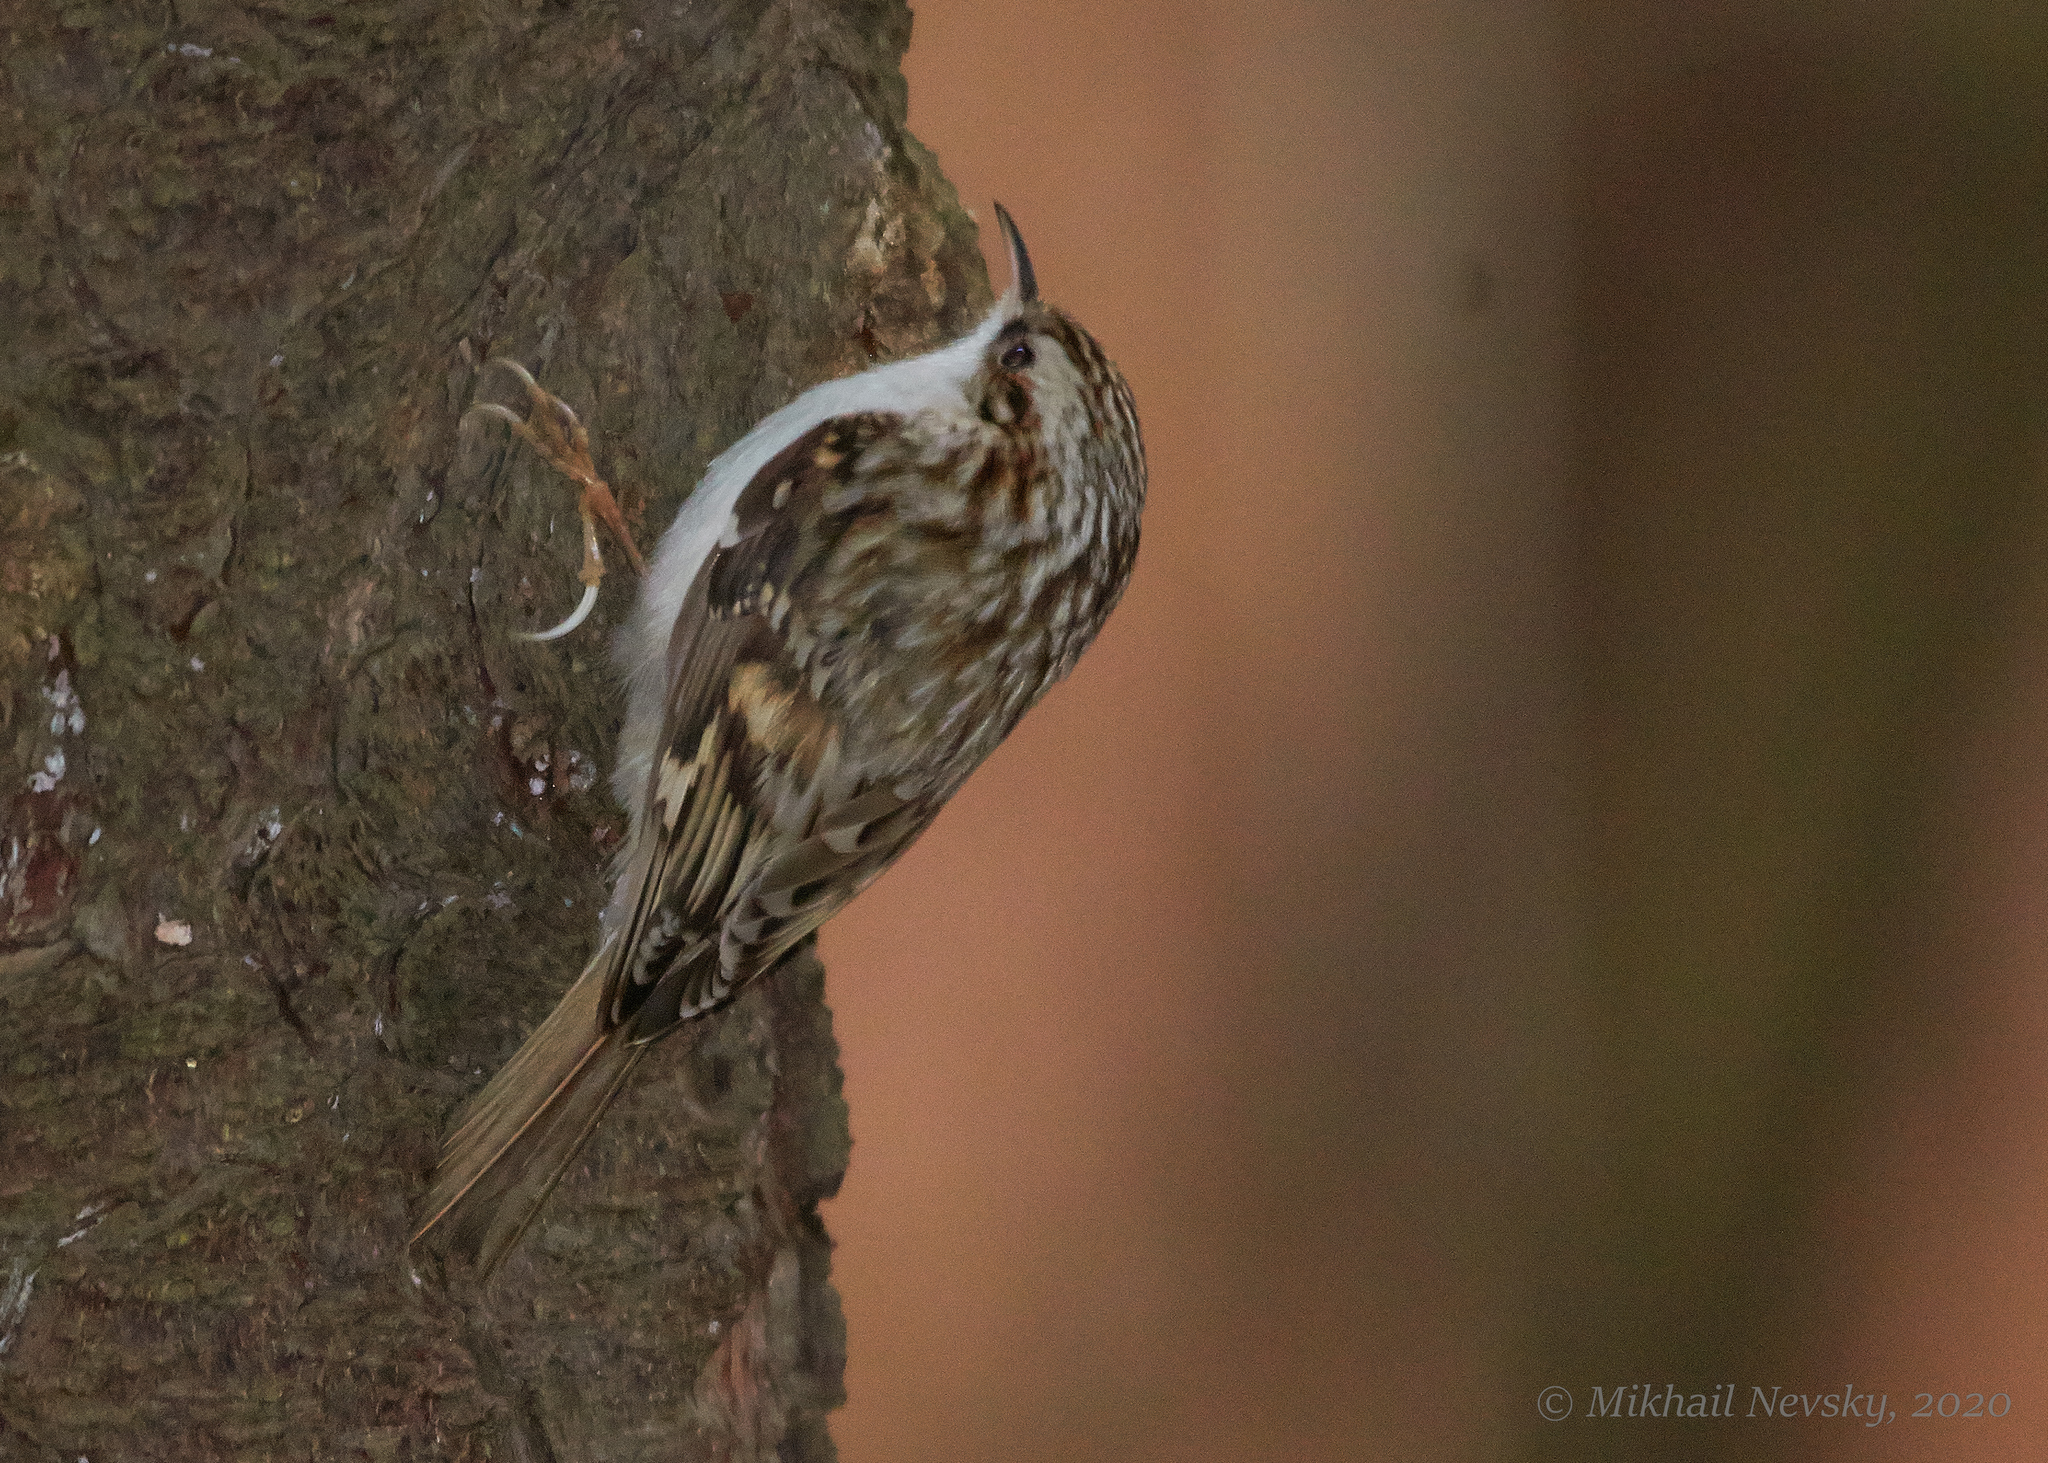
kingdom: Animalia
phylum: Chordata
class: Aves
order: Passeriformes
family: Certhiidae
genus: Certhia
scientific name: Certhia familiaris
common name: Eurasian treecreeper
